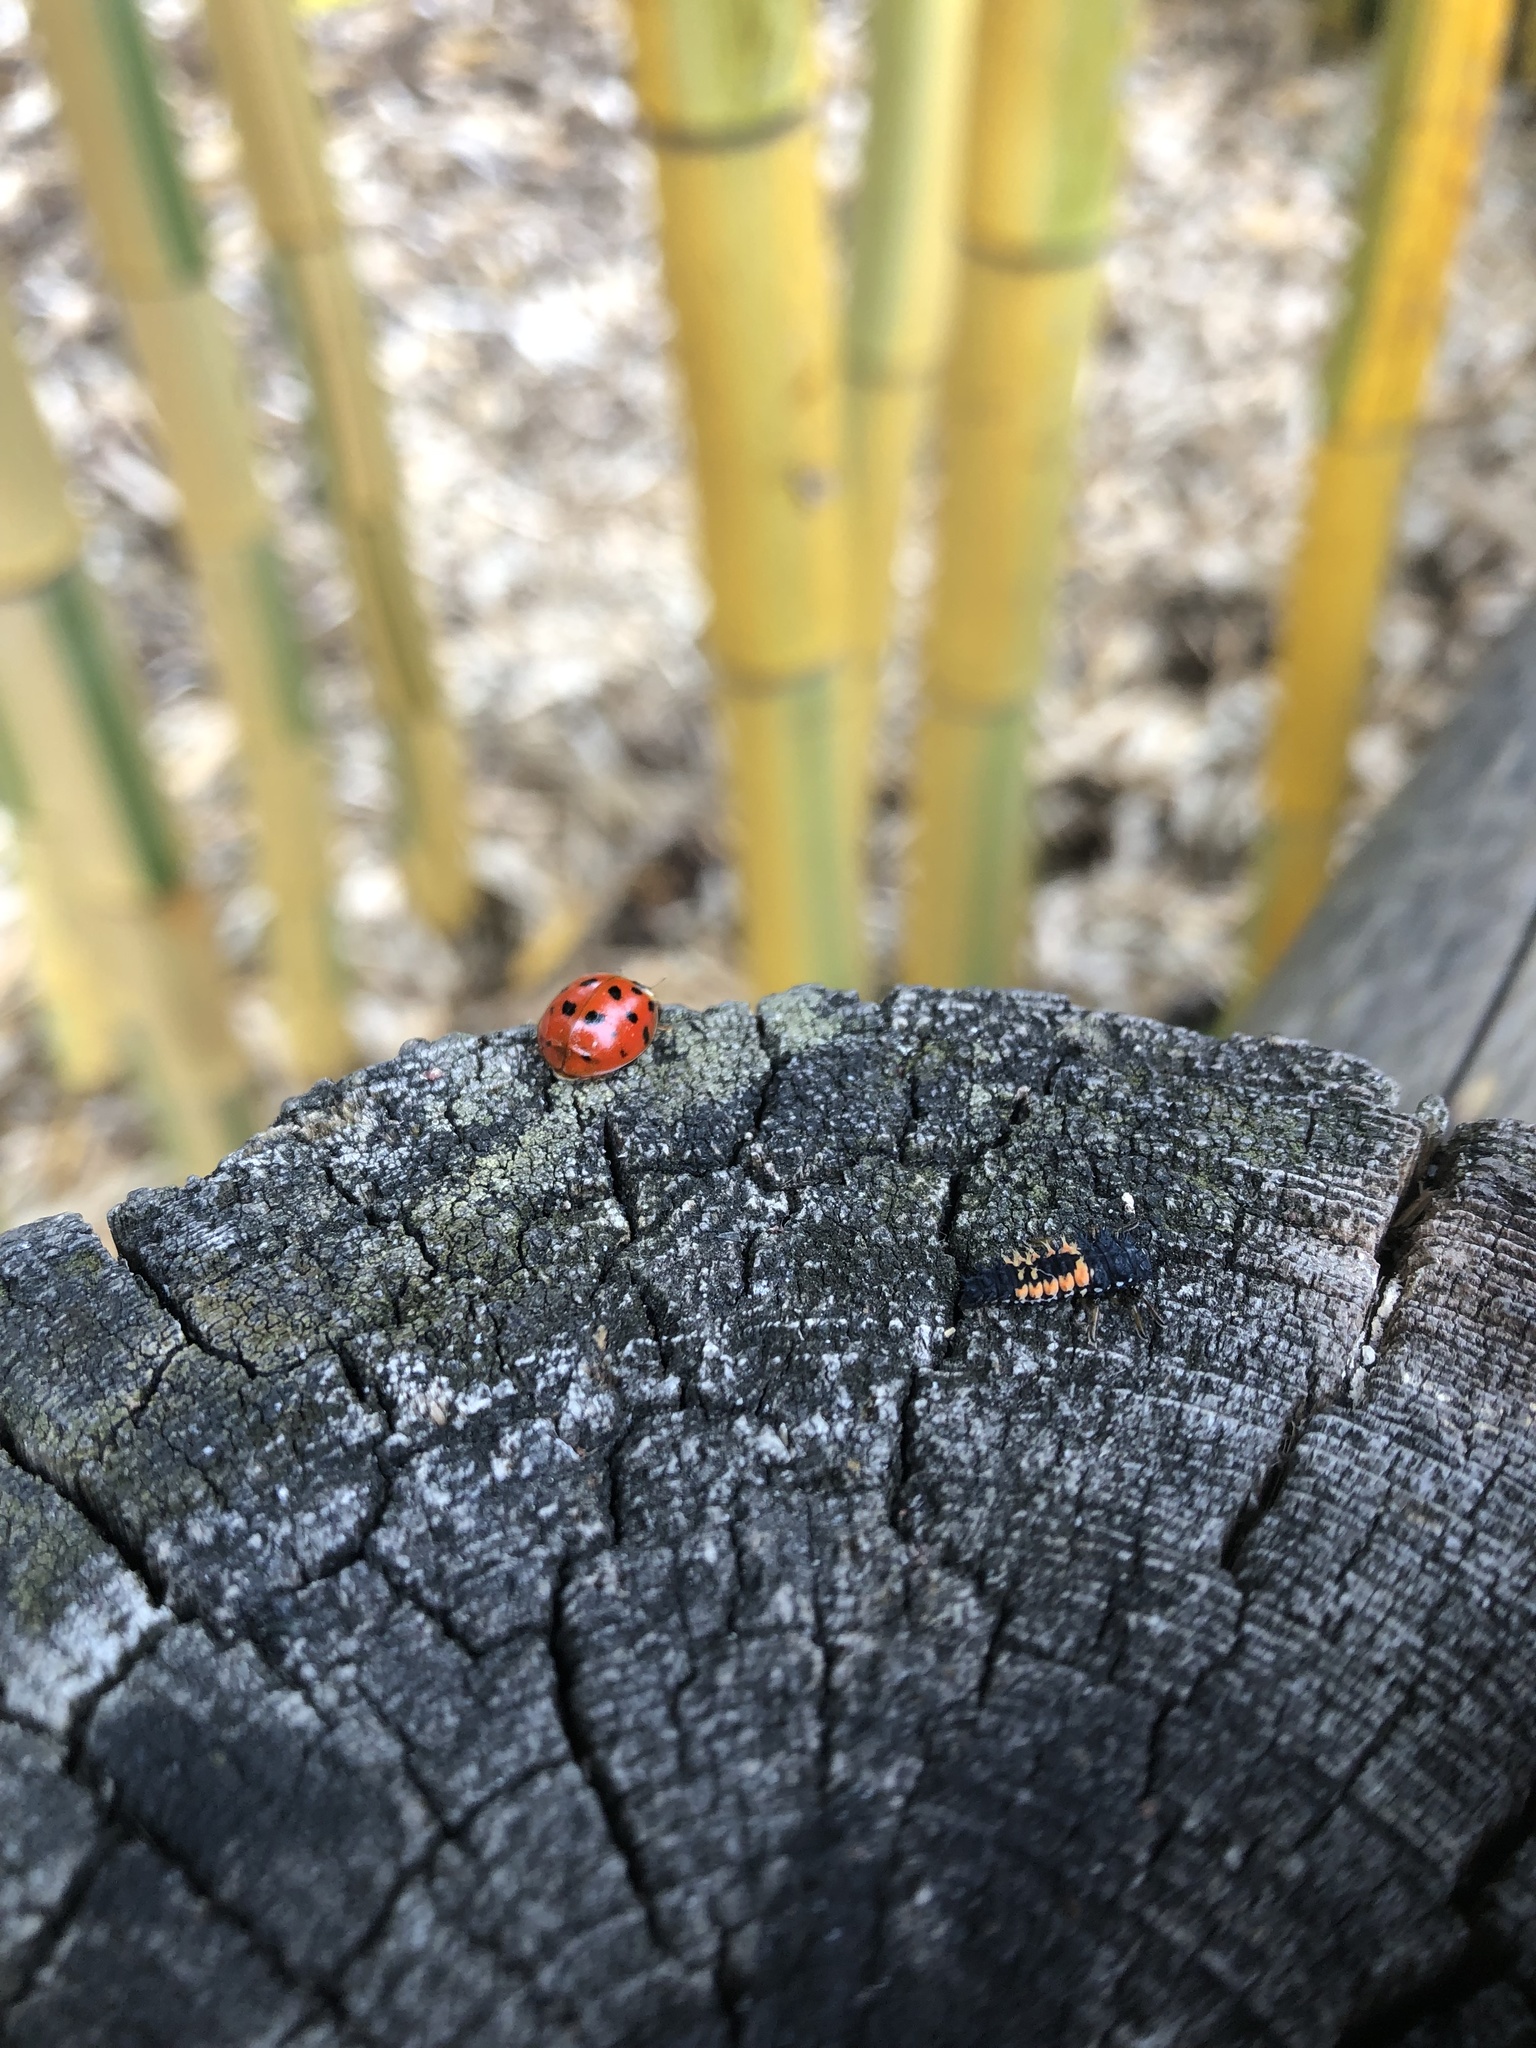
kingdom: Animalia
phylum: Arthropoda
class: Insecta
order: Coleoptera
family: Coccinellidae
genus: Harmonia
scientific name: Harmonia axyridis
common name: Harlequin ladybird
